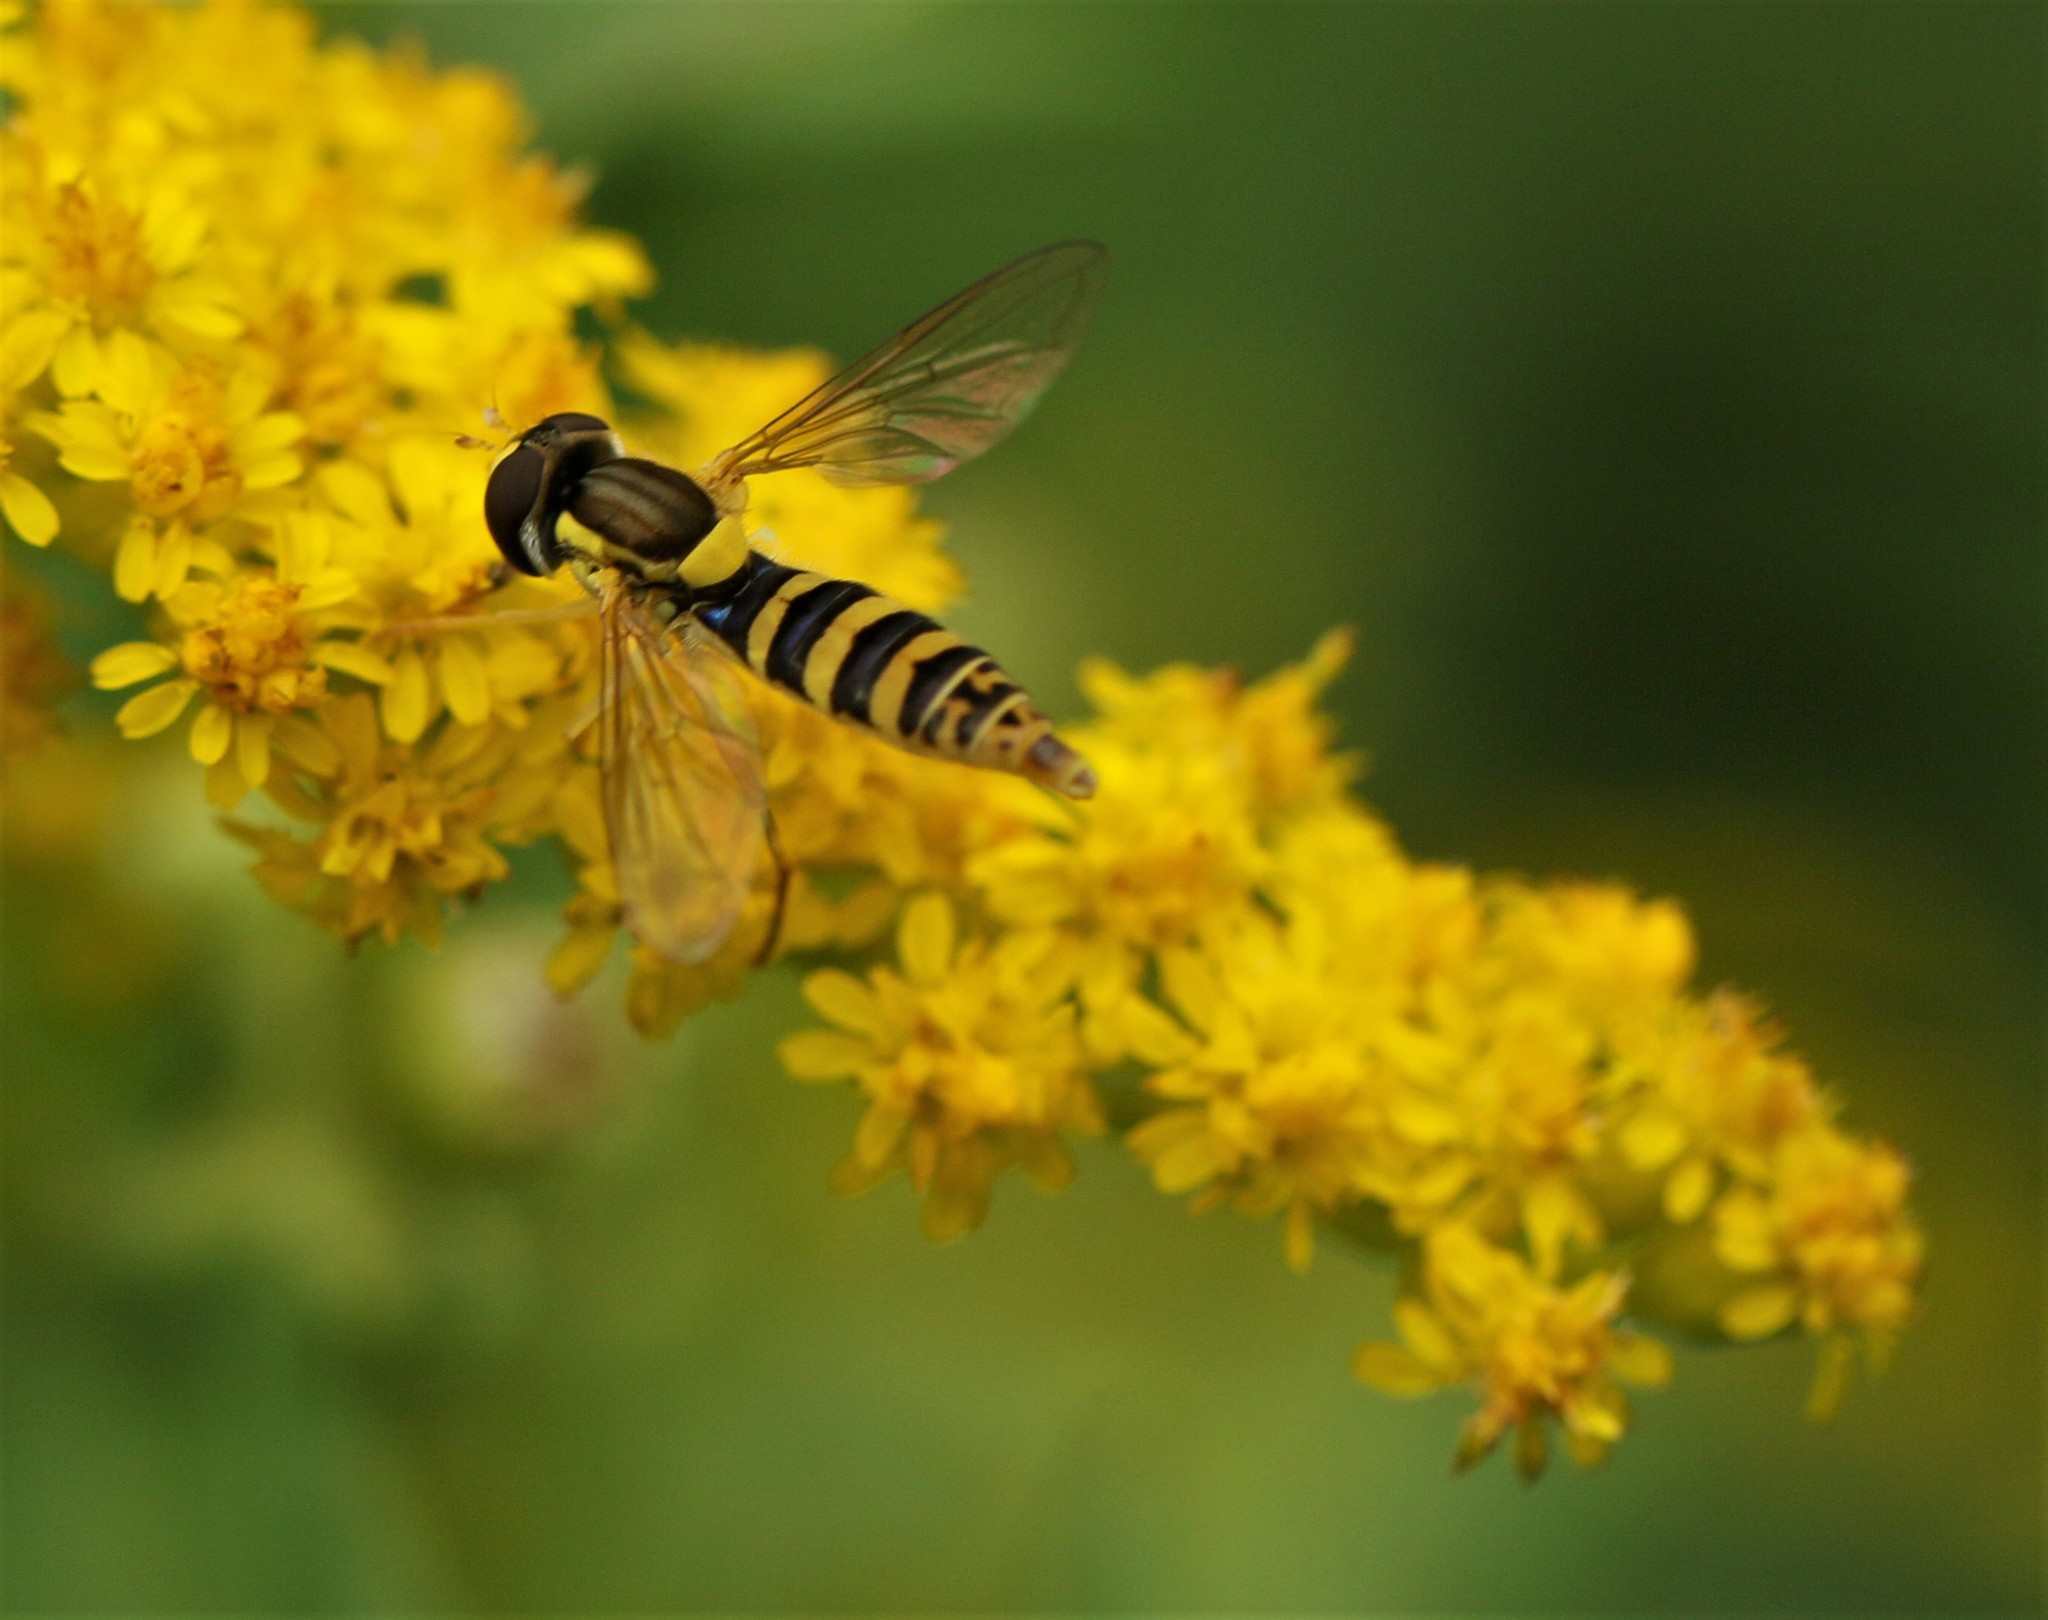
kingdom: Animalia
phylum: Arthropoda
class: Insecta
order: Diptera
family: Syrphidae
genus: Sphaerophoria
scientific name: Sphaerophoria
